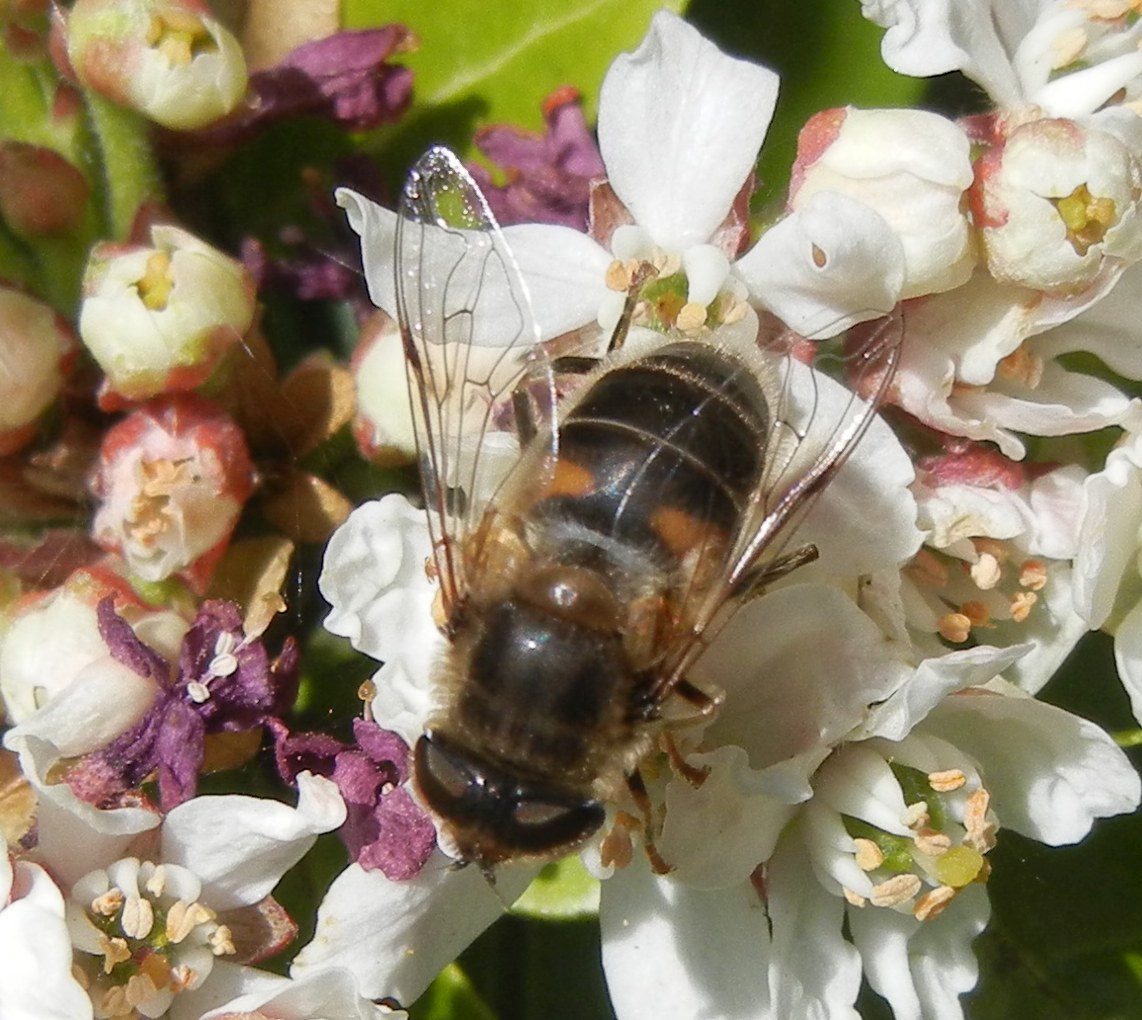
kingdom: Animalia
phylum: Arthropoda
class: Insecta
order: Diptera
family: Syrphidae
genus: Eristalis
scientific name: Eristalis pertinax
